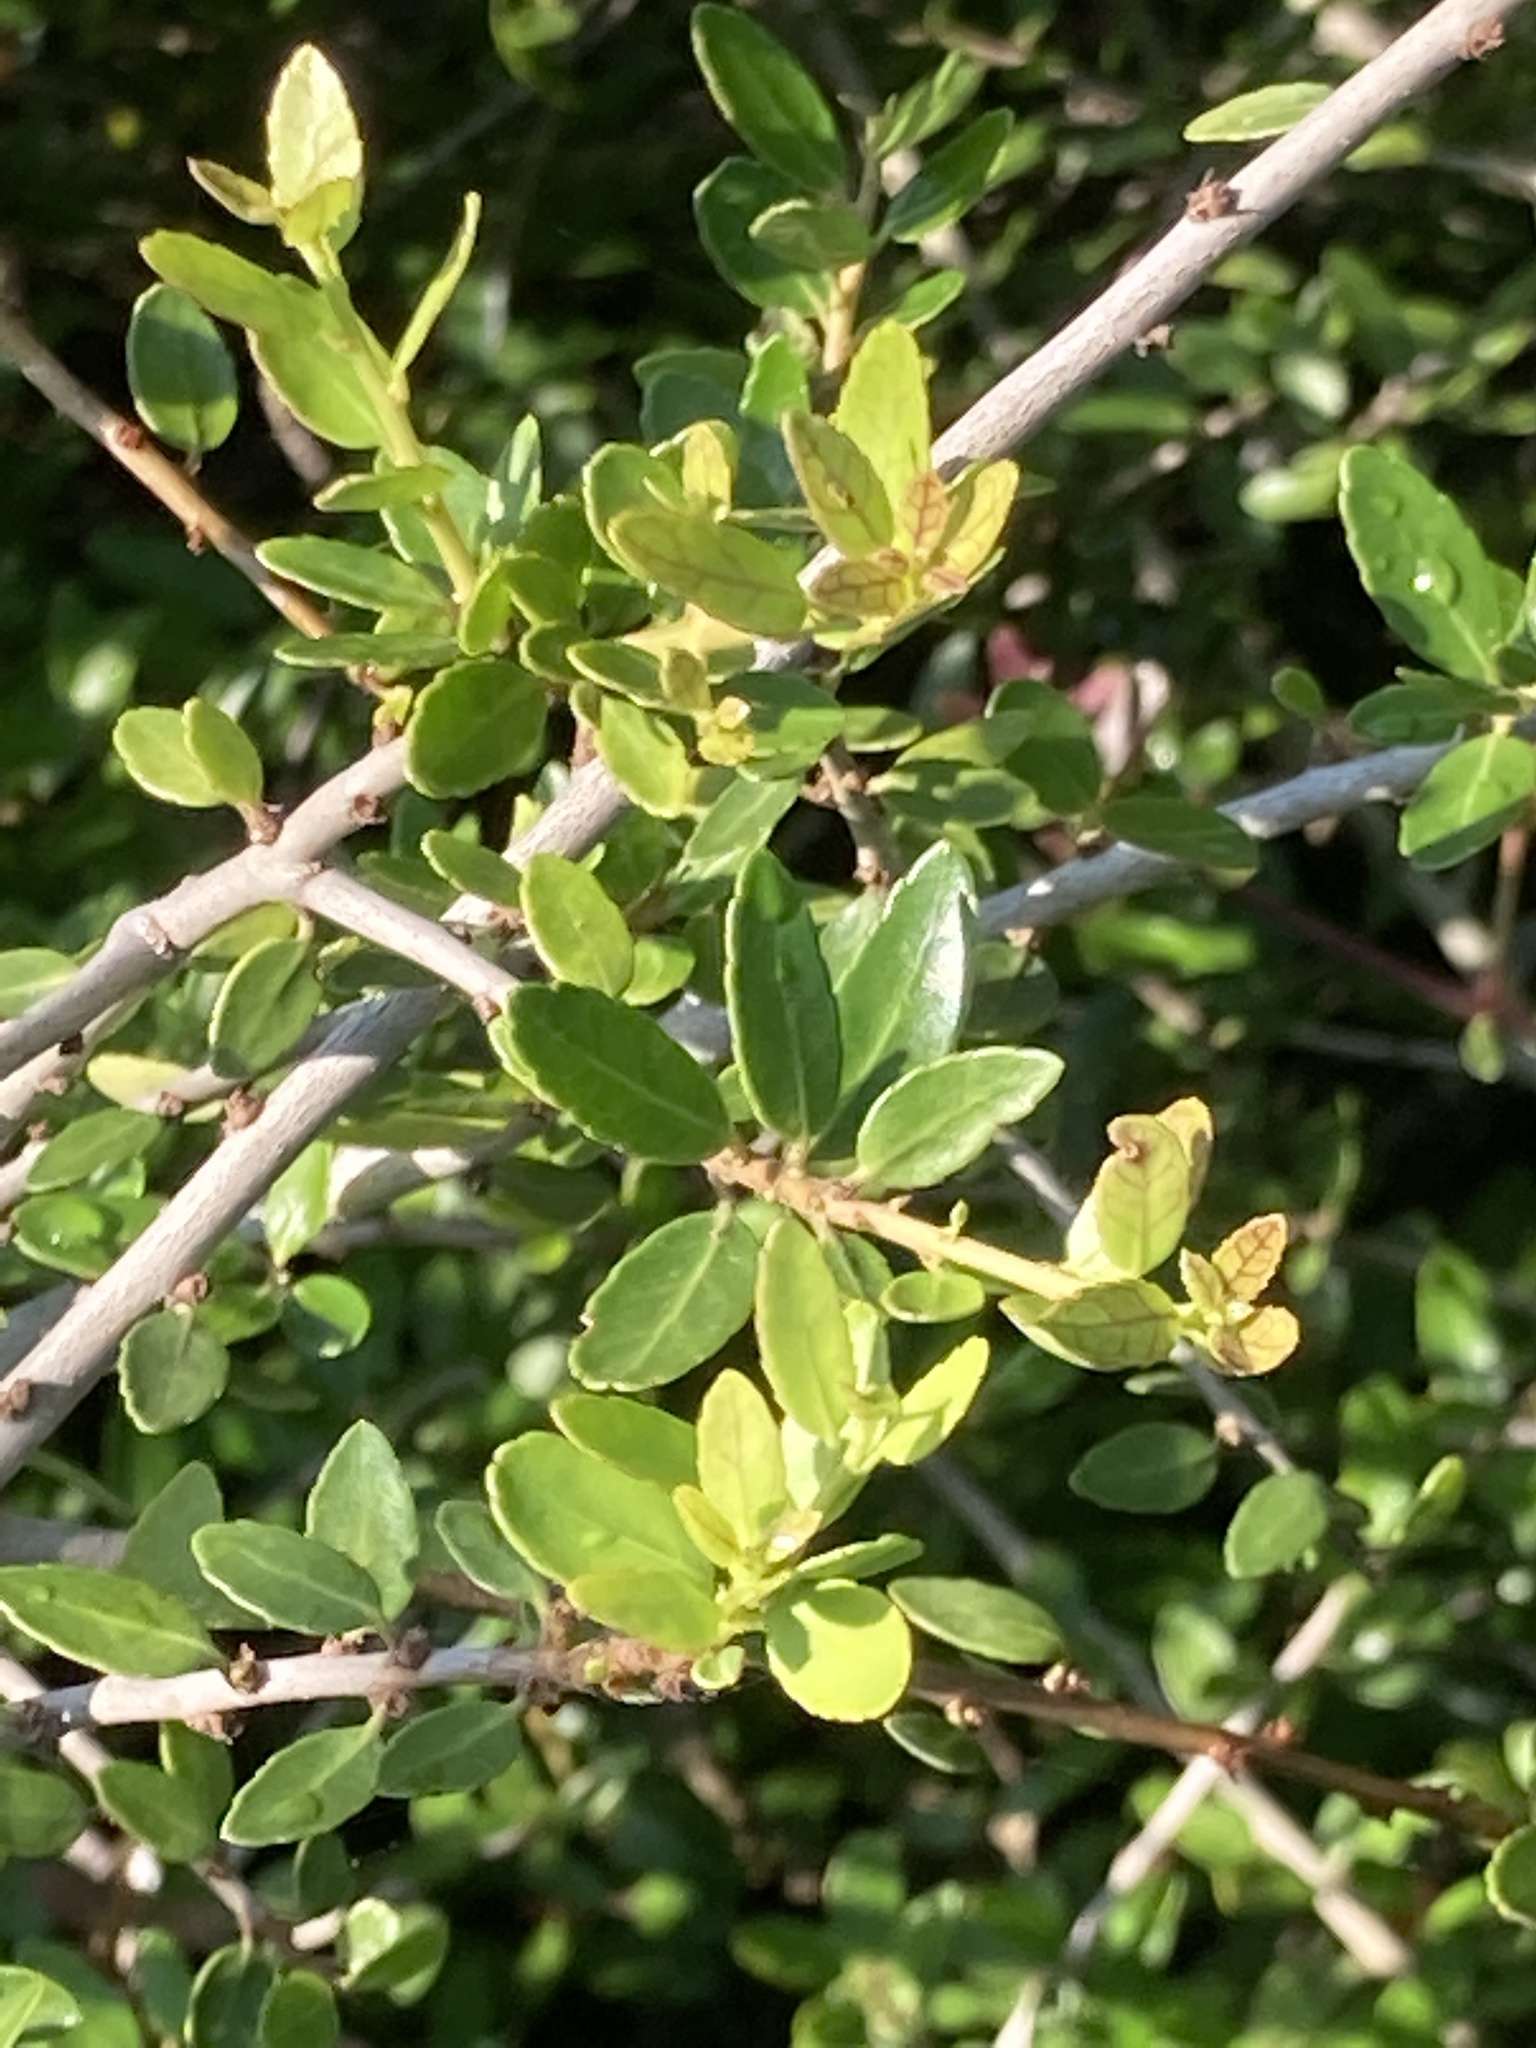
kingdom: Plantae
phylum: Tracheophyta
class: Magnoliopsida
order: Aquifoliales
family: Aquifoliaceae
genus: Ilex
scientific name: Ilex vomitoria
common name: Yaupon holly
